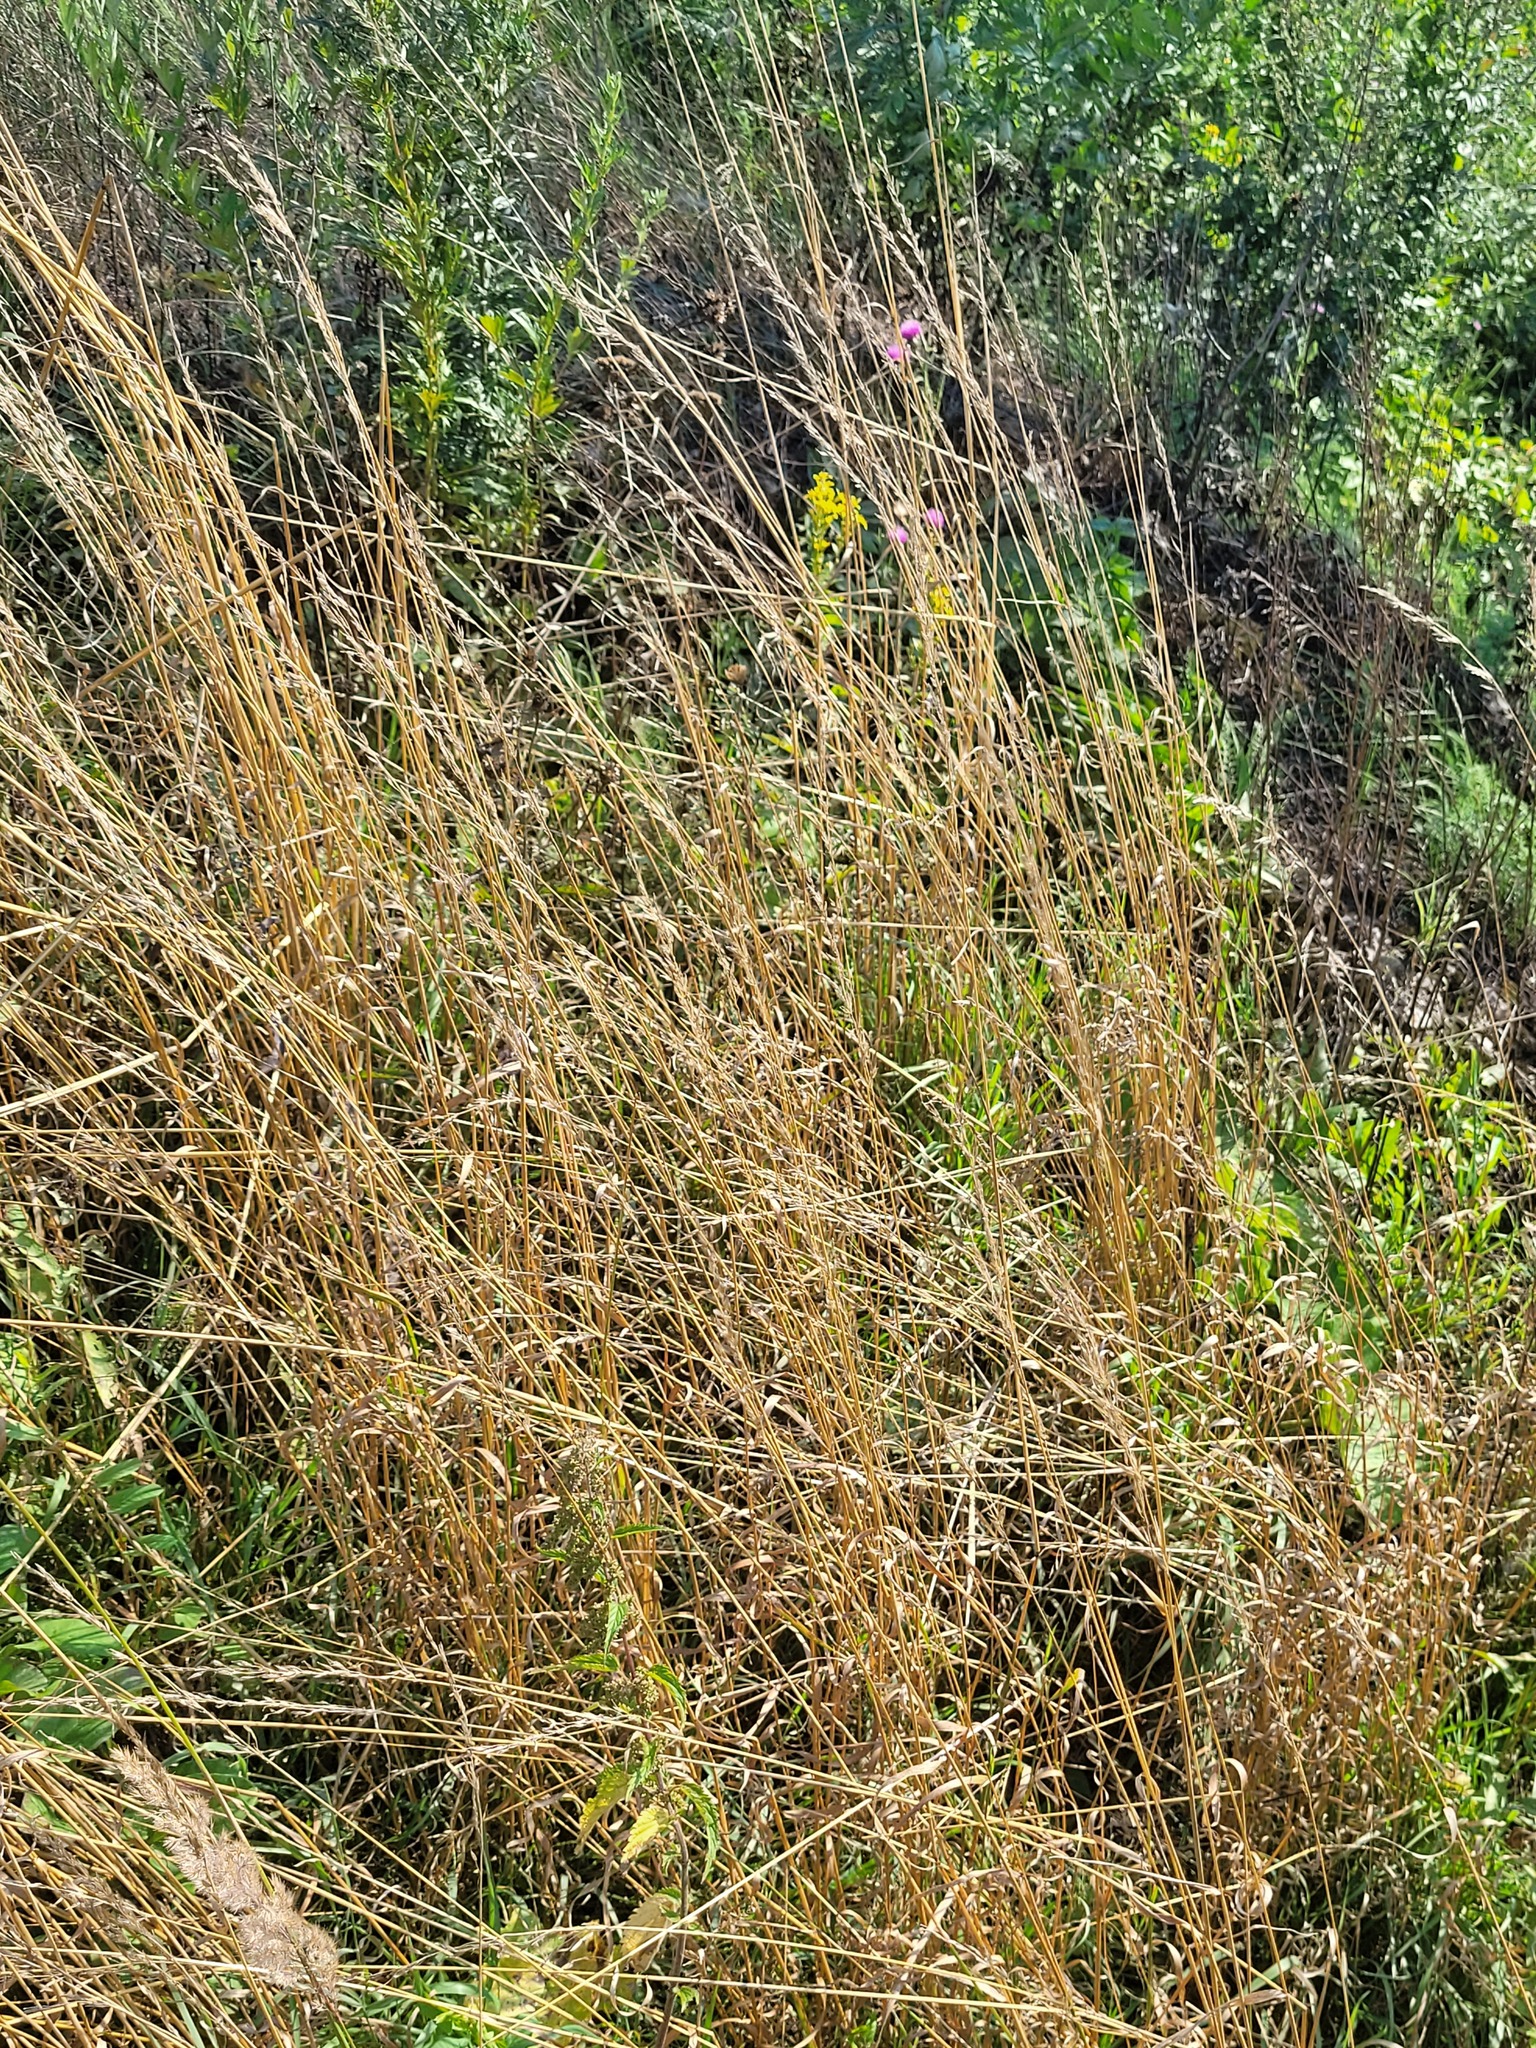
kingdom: Plantae
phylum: Tracheophyta
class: Liliopsida
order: Poales
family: Poaceae
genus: Arrhenatherum
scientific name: Arrhenatherum elatius
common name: Tall oatgrass
